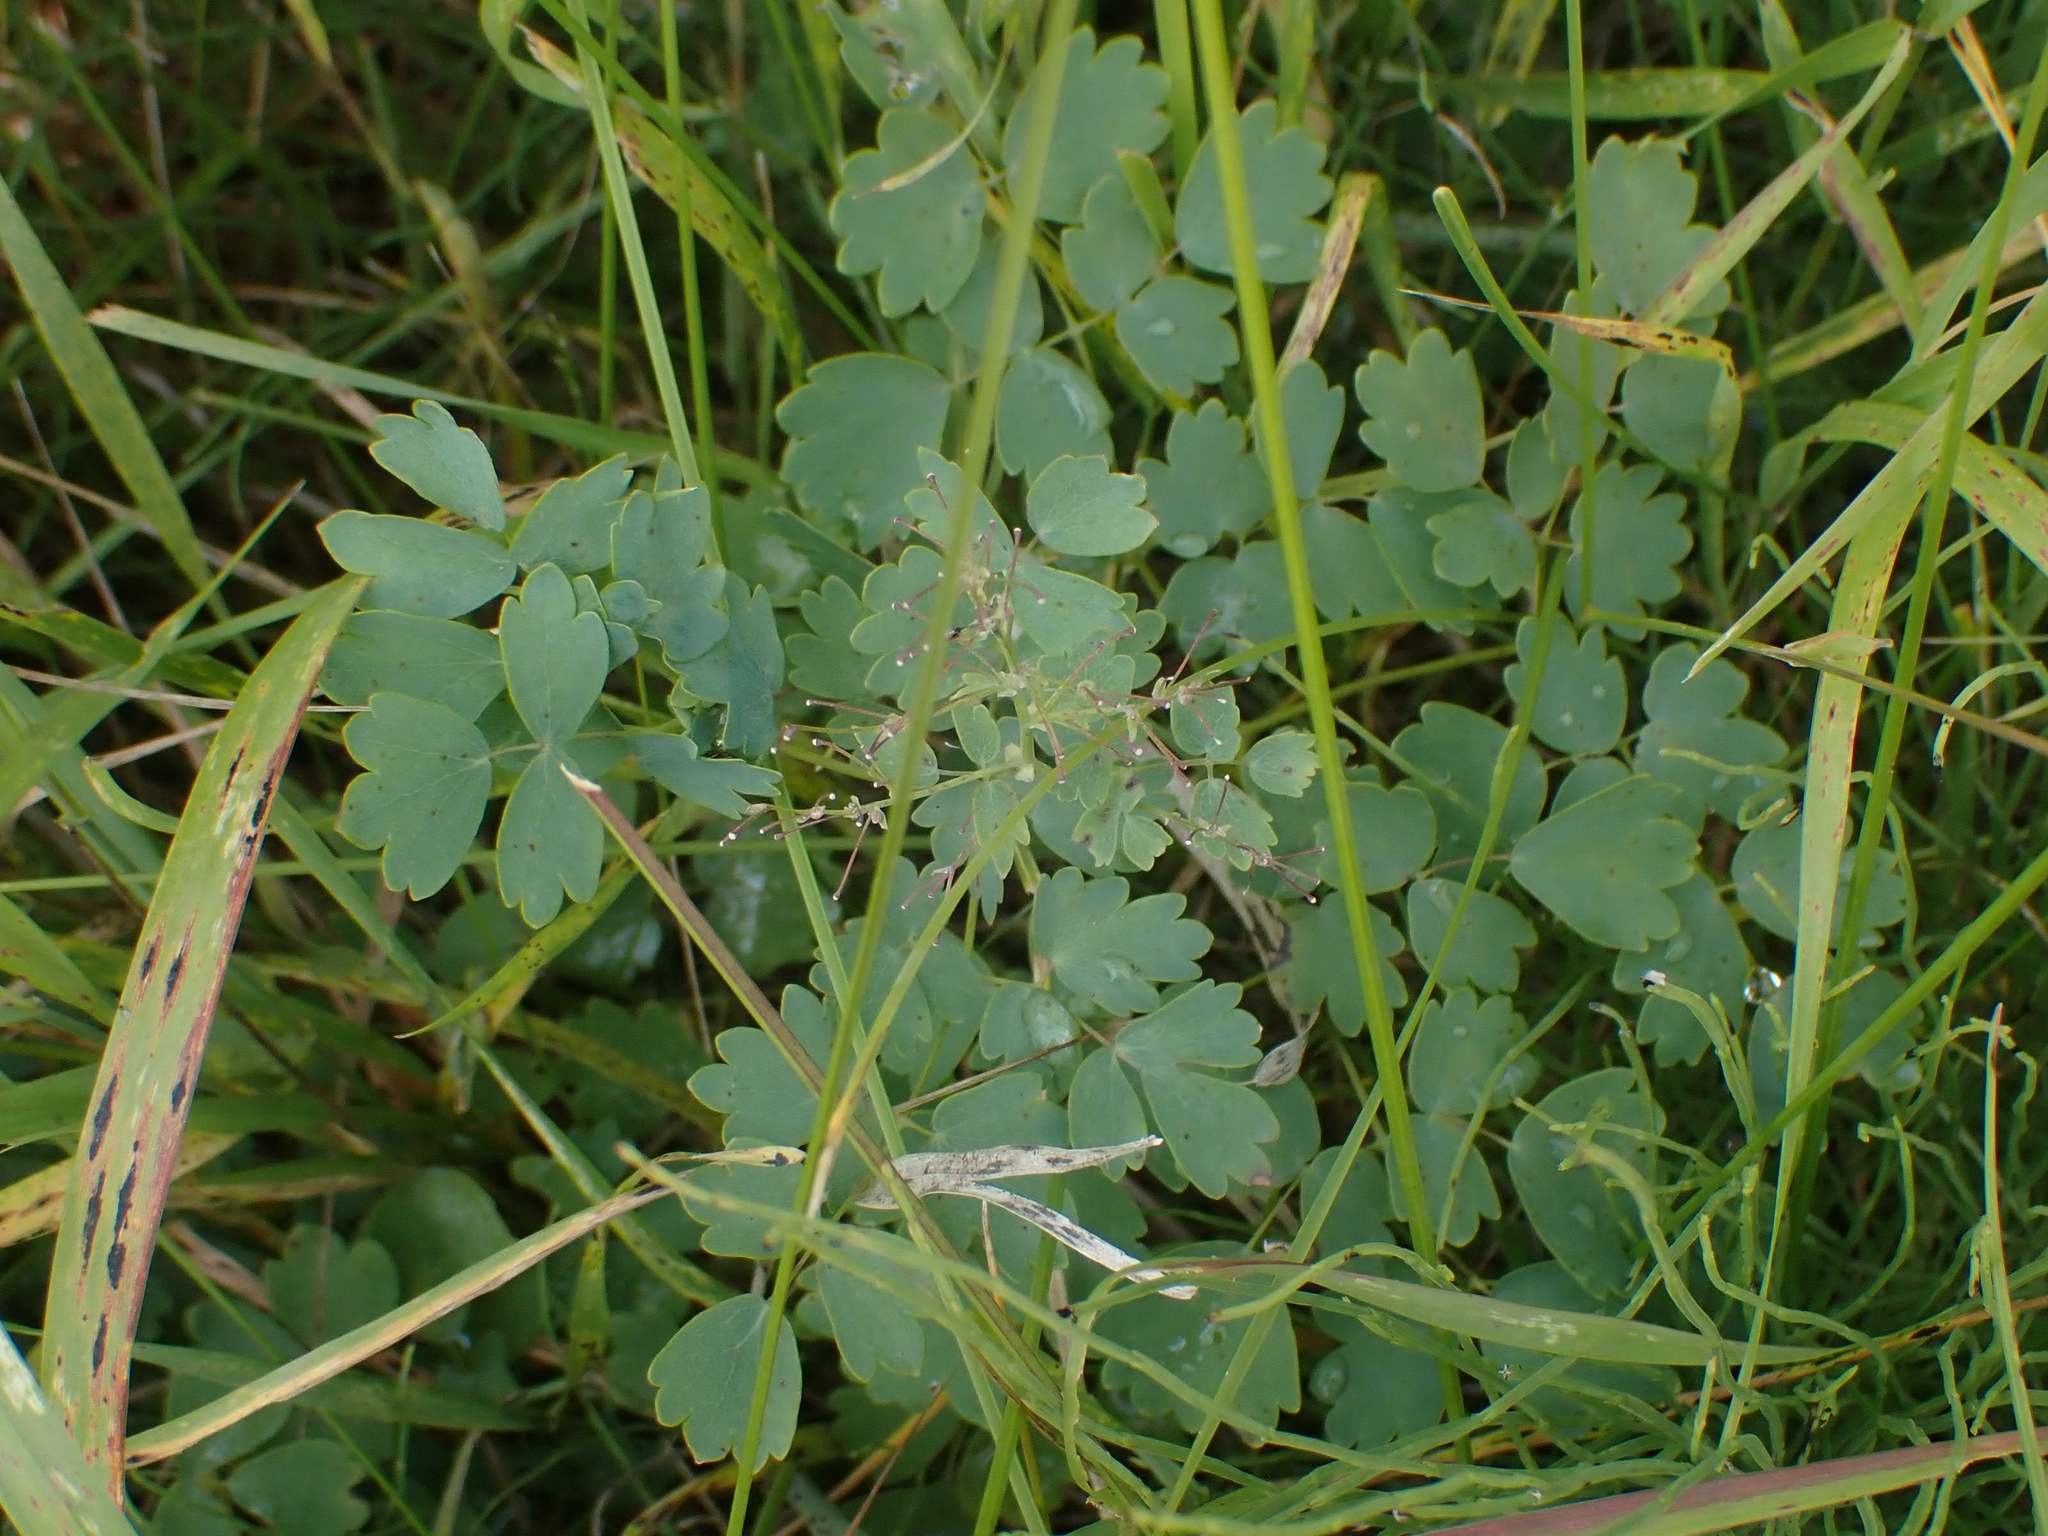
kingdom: Plantae
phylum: Tracheophyta
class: Magnoliopsida
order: Ranunculales
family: Ranunculaceae
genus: Thalictrum
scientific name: Thalictrum venulosum
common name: Early meadow-rue
